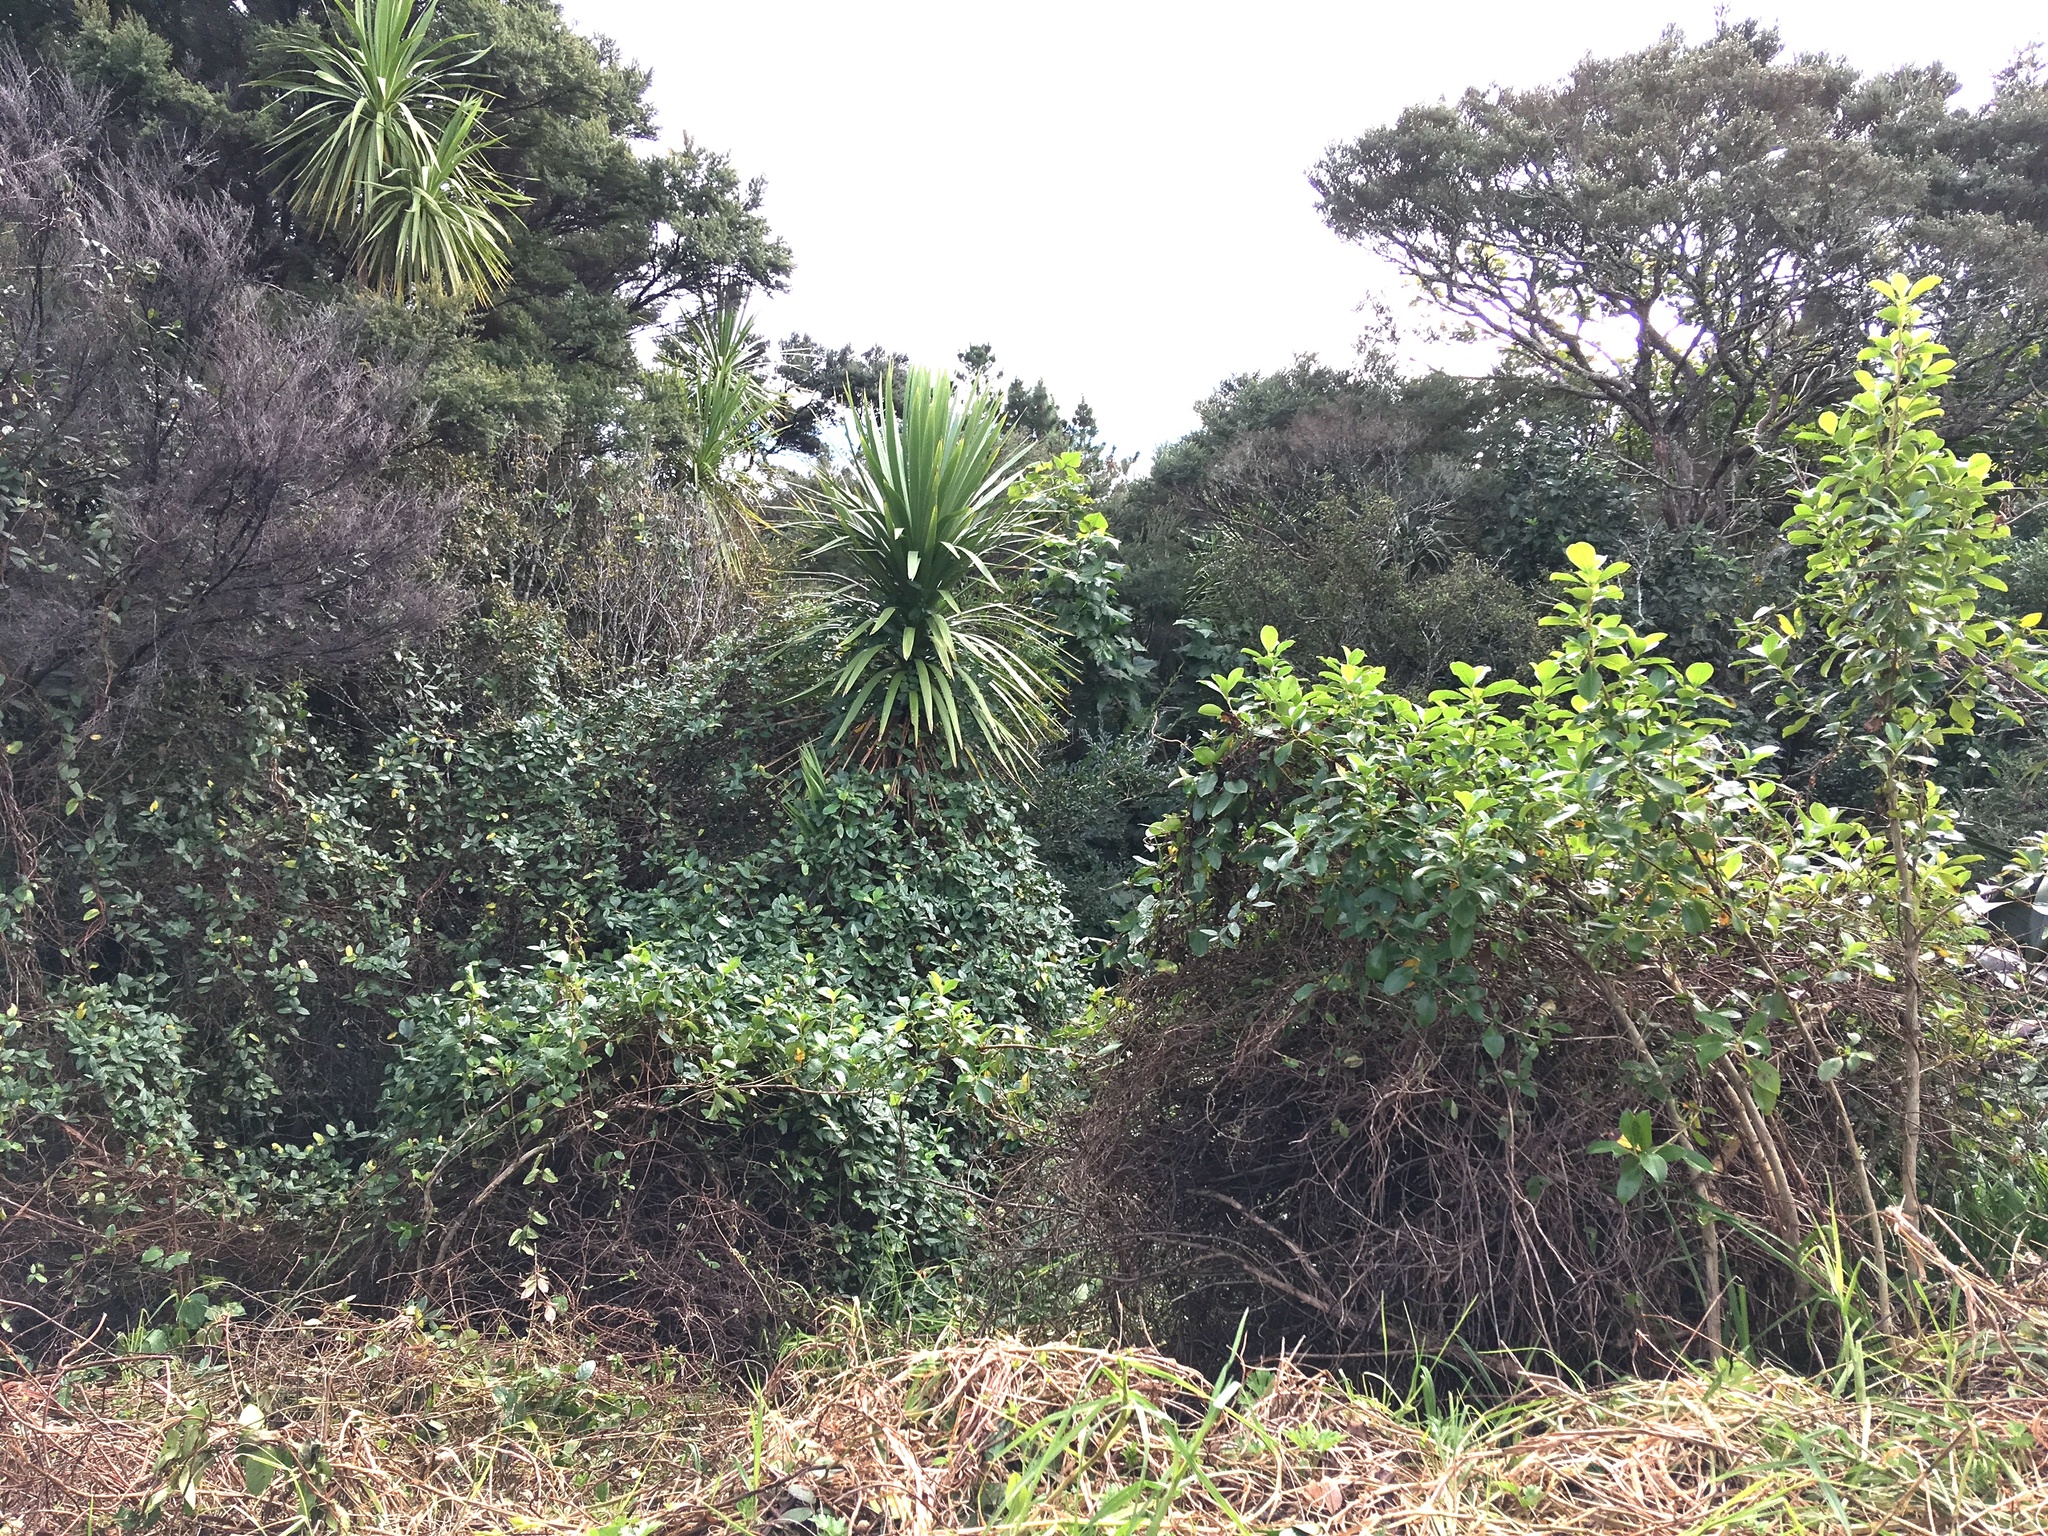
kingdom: Plantae
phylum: Tracheophyta
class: Magnoliopsida
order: Gentianales
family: Rubiaceae
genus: Coprosma
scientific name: Coprosma robusta
